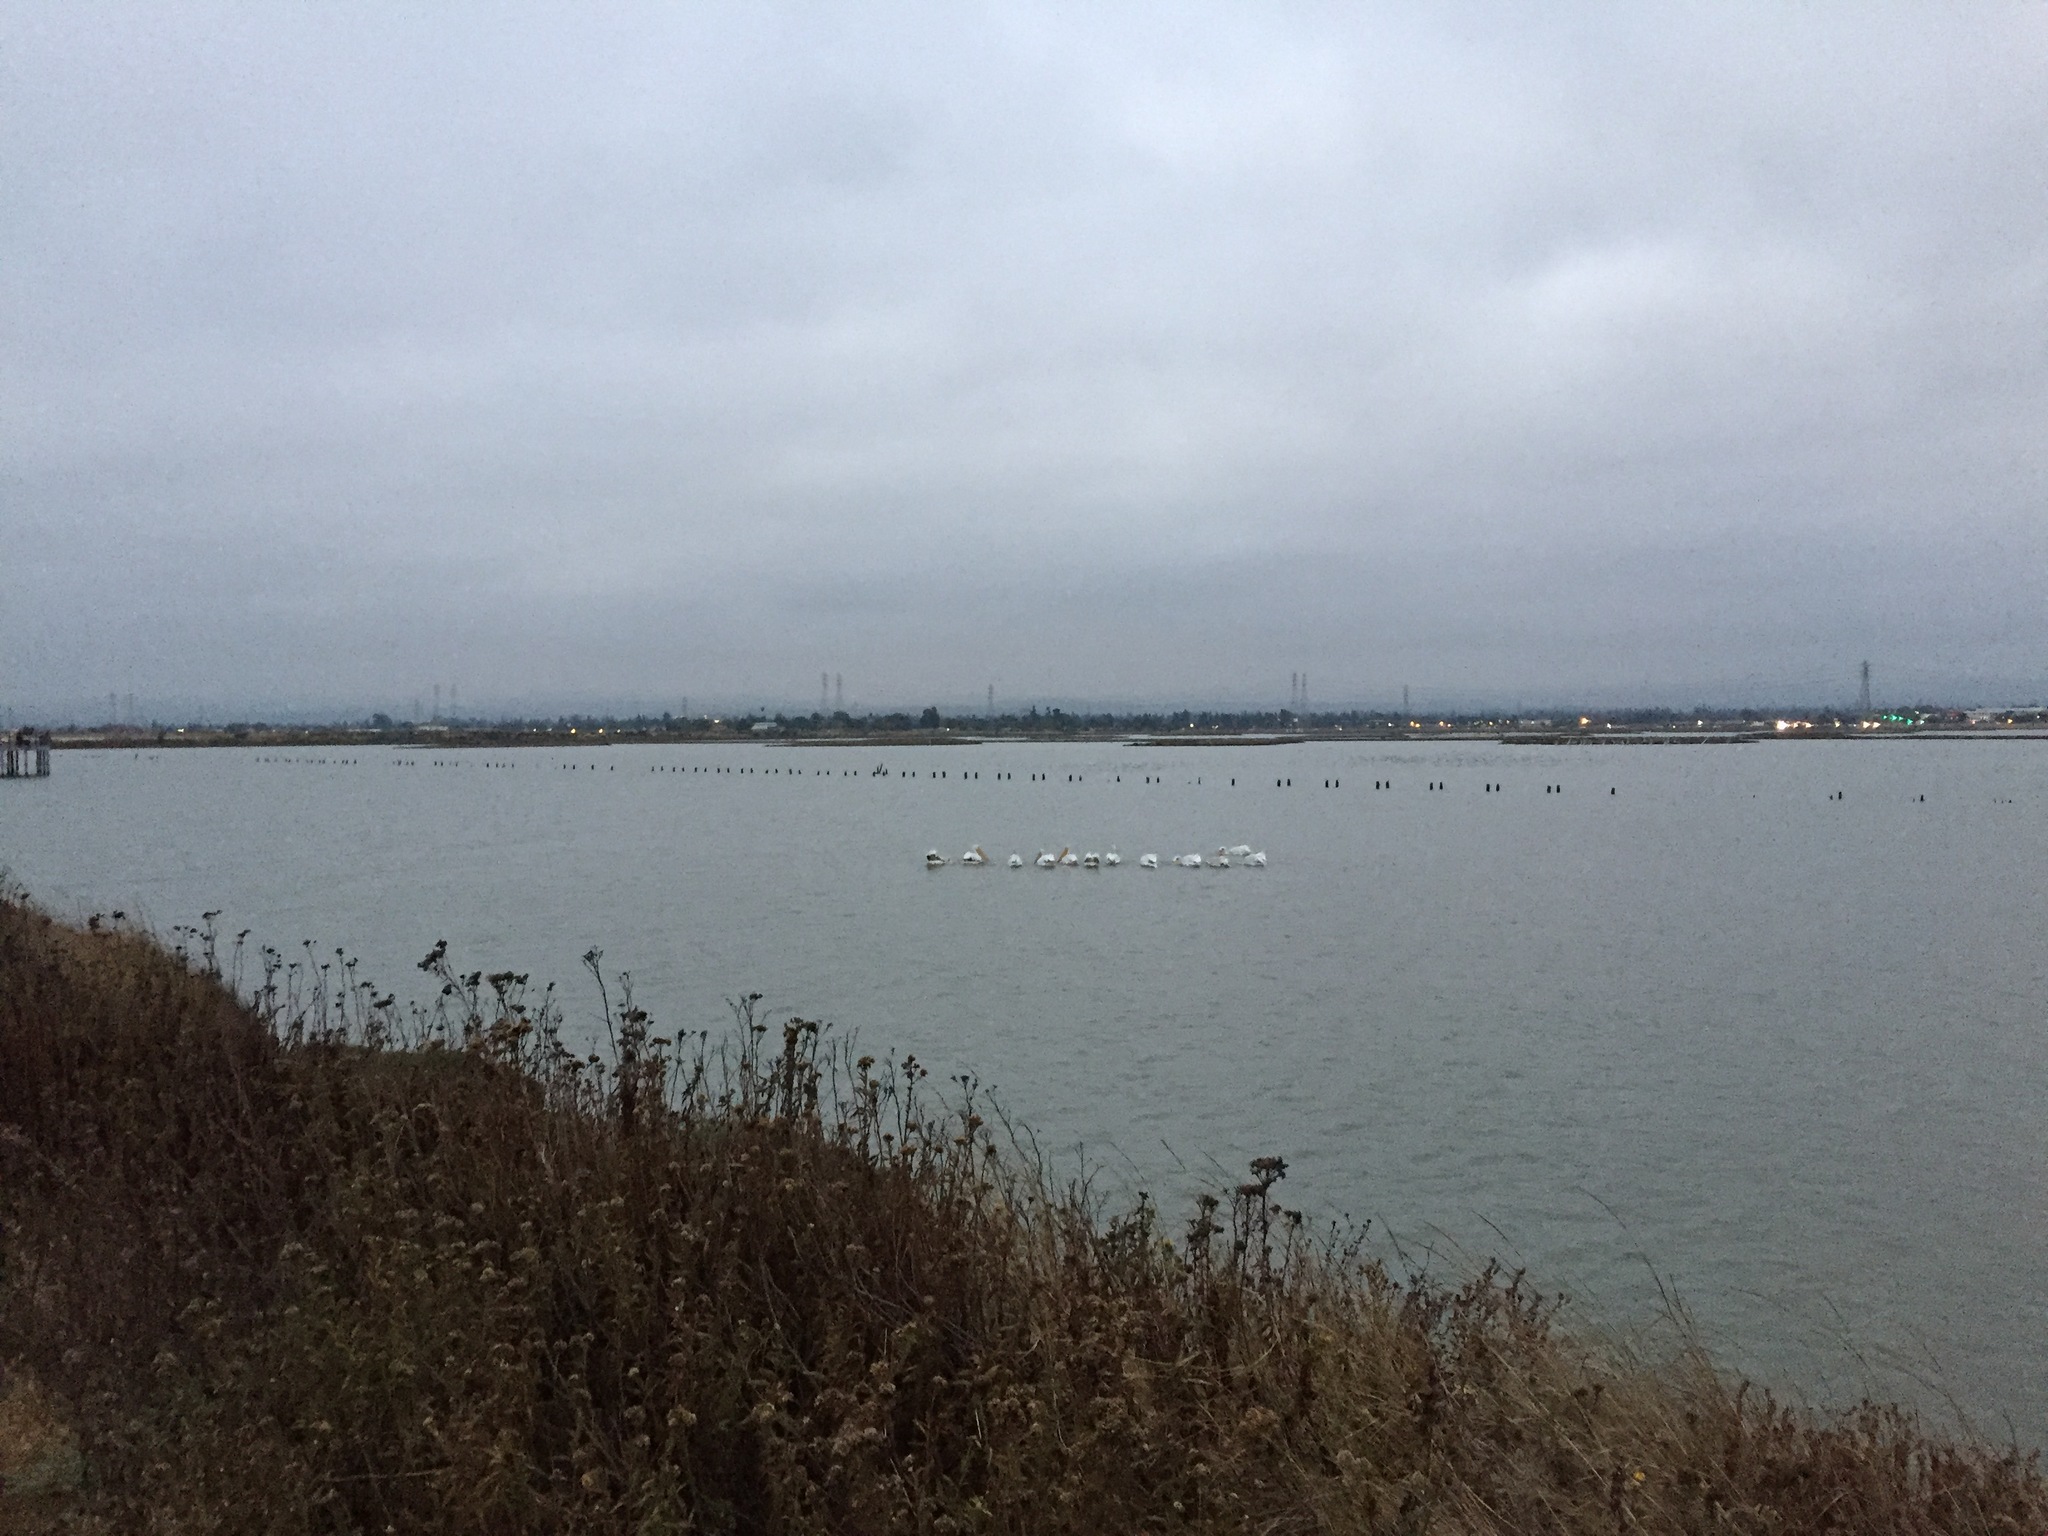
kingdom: Animalia
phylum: Chordata
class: Aves
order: Pelecaniformes
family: Pelecanidae
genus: Pelecanus
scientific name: Pelecanus erythrorhynchos
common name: American white pelican
